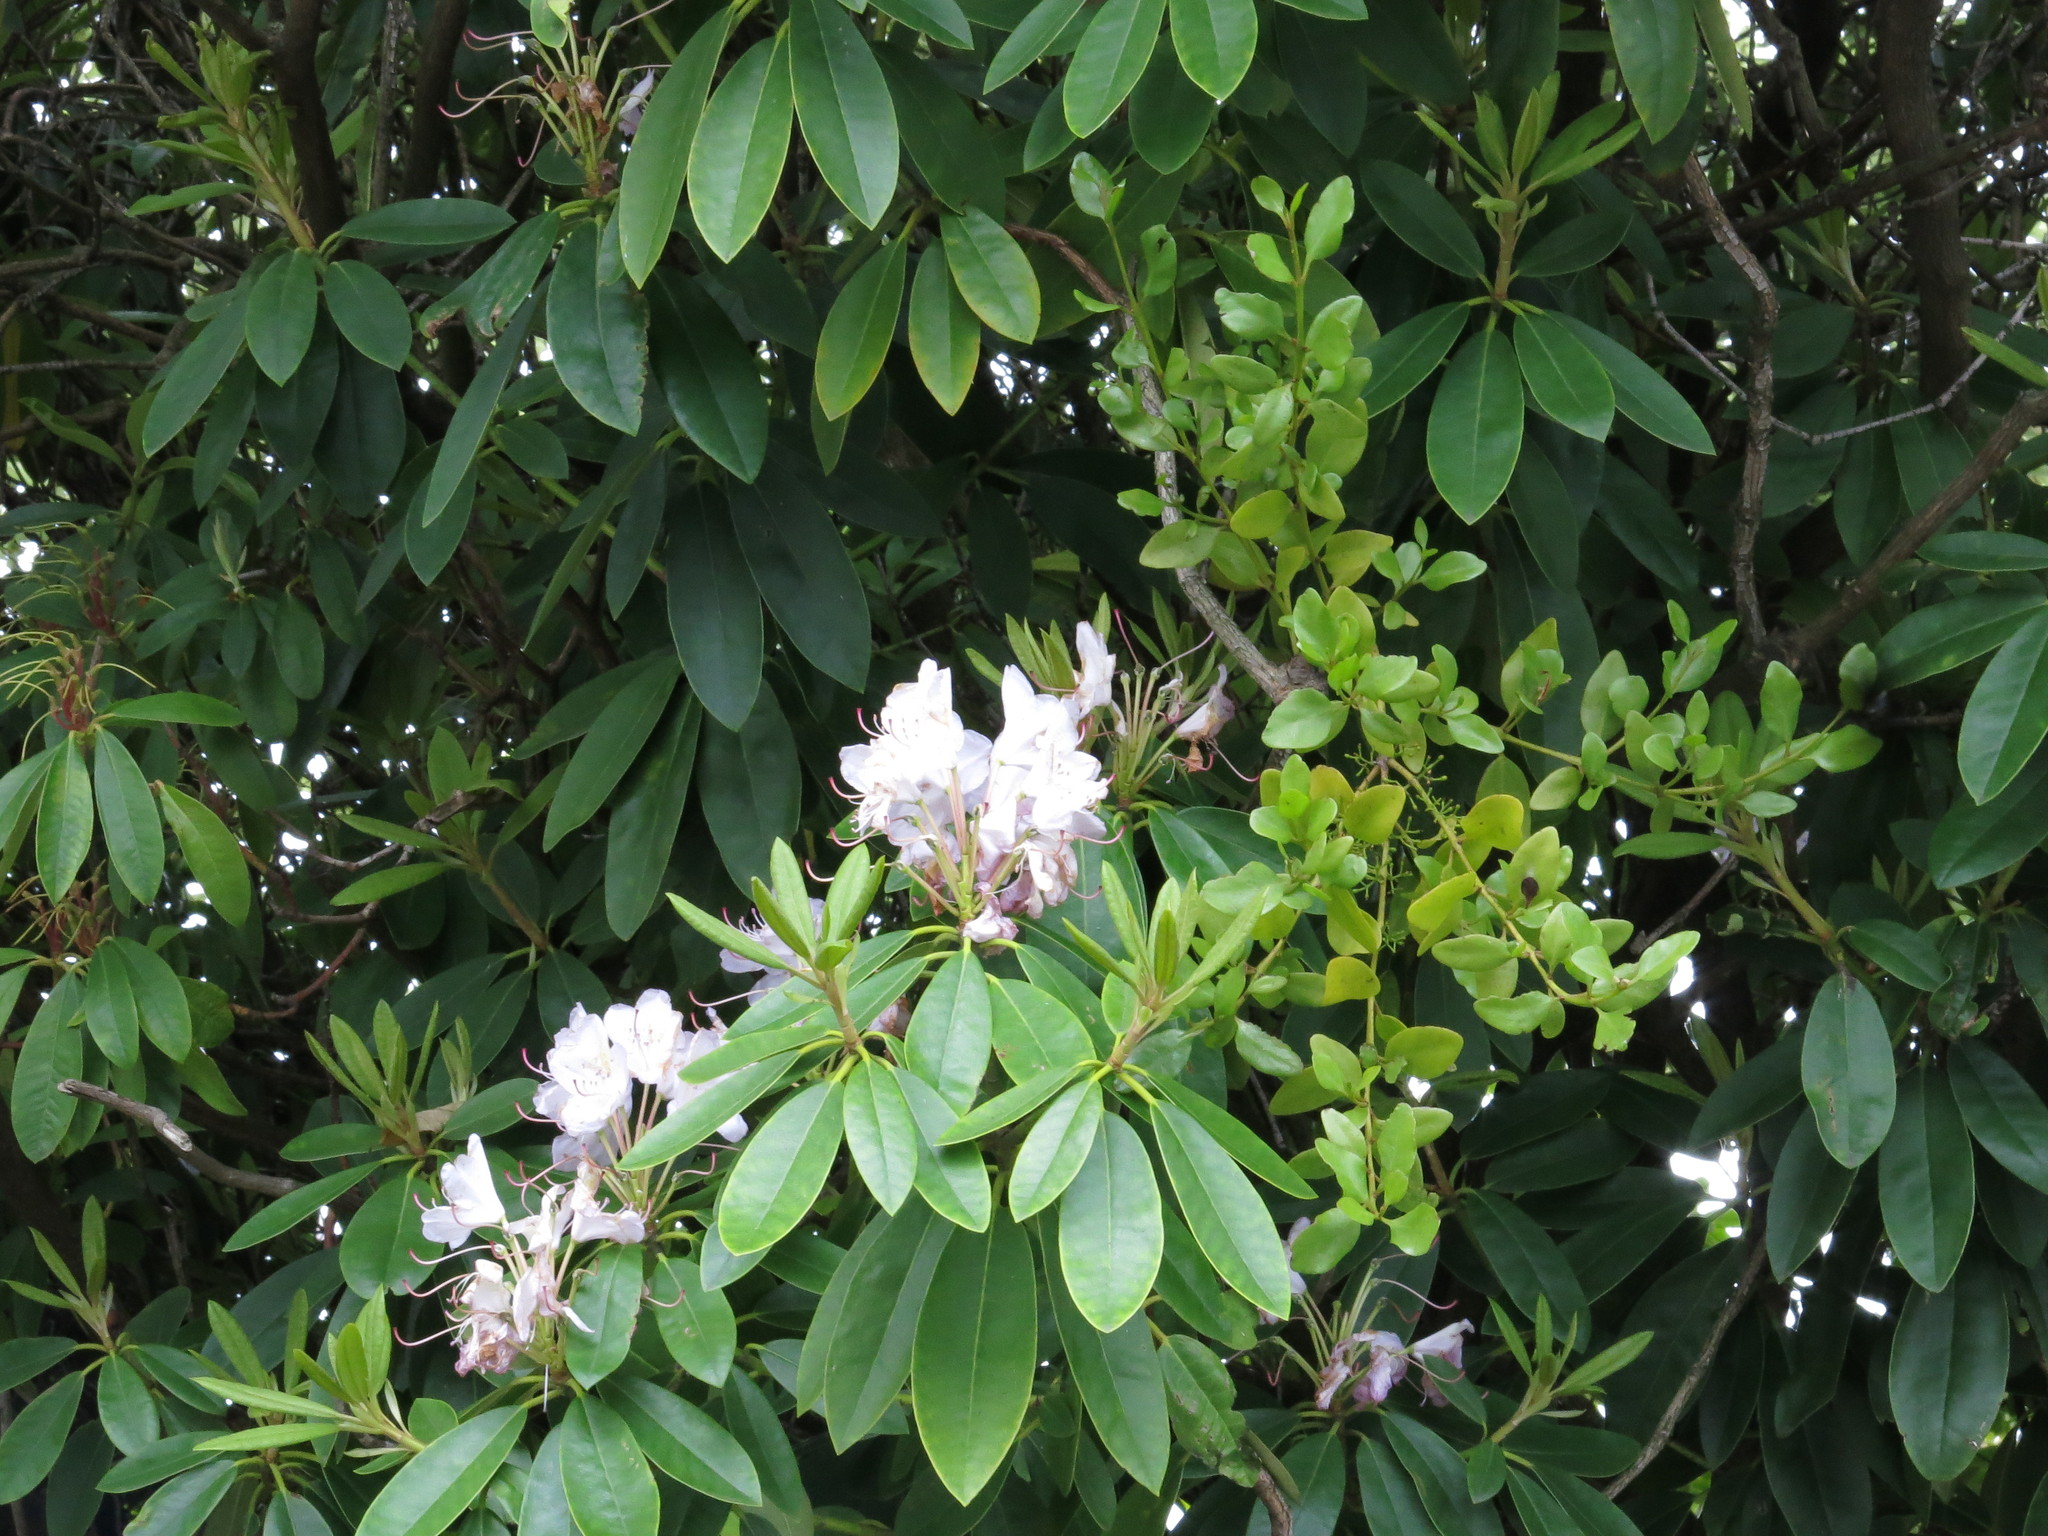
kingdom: Plantae
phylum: Tracheophyta
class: Magnoliopsida
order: Santalales
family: Loranthaceae
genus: Ileostylus
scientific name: Ileostylus micranthus
